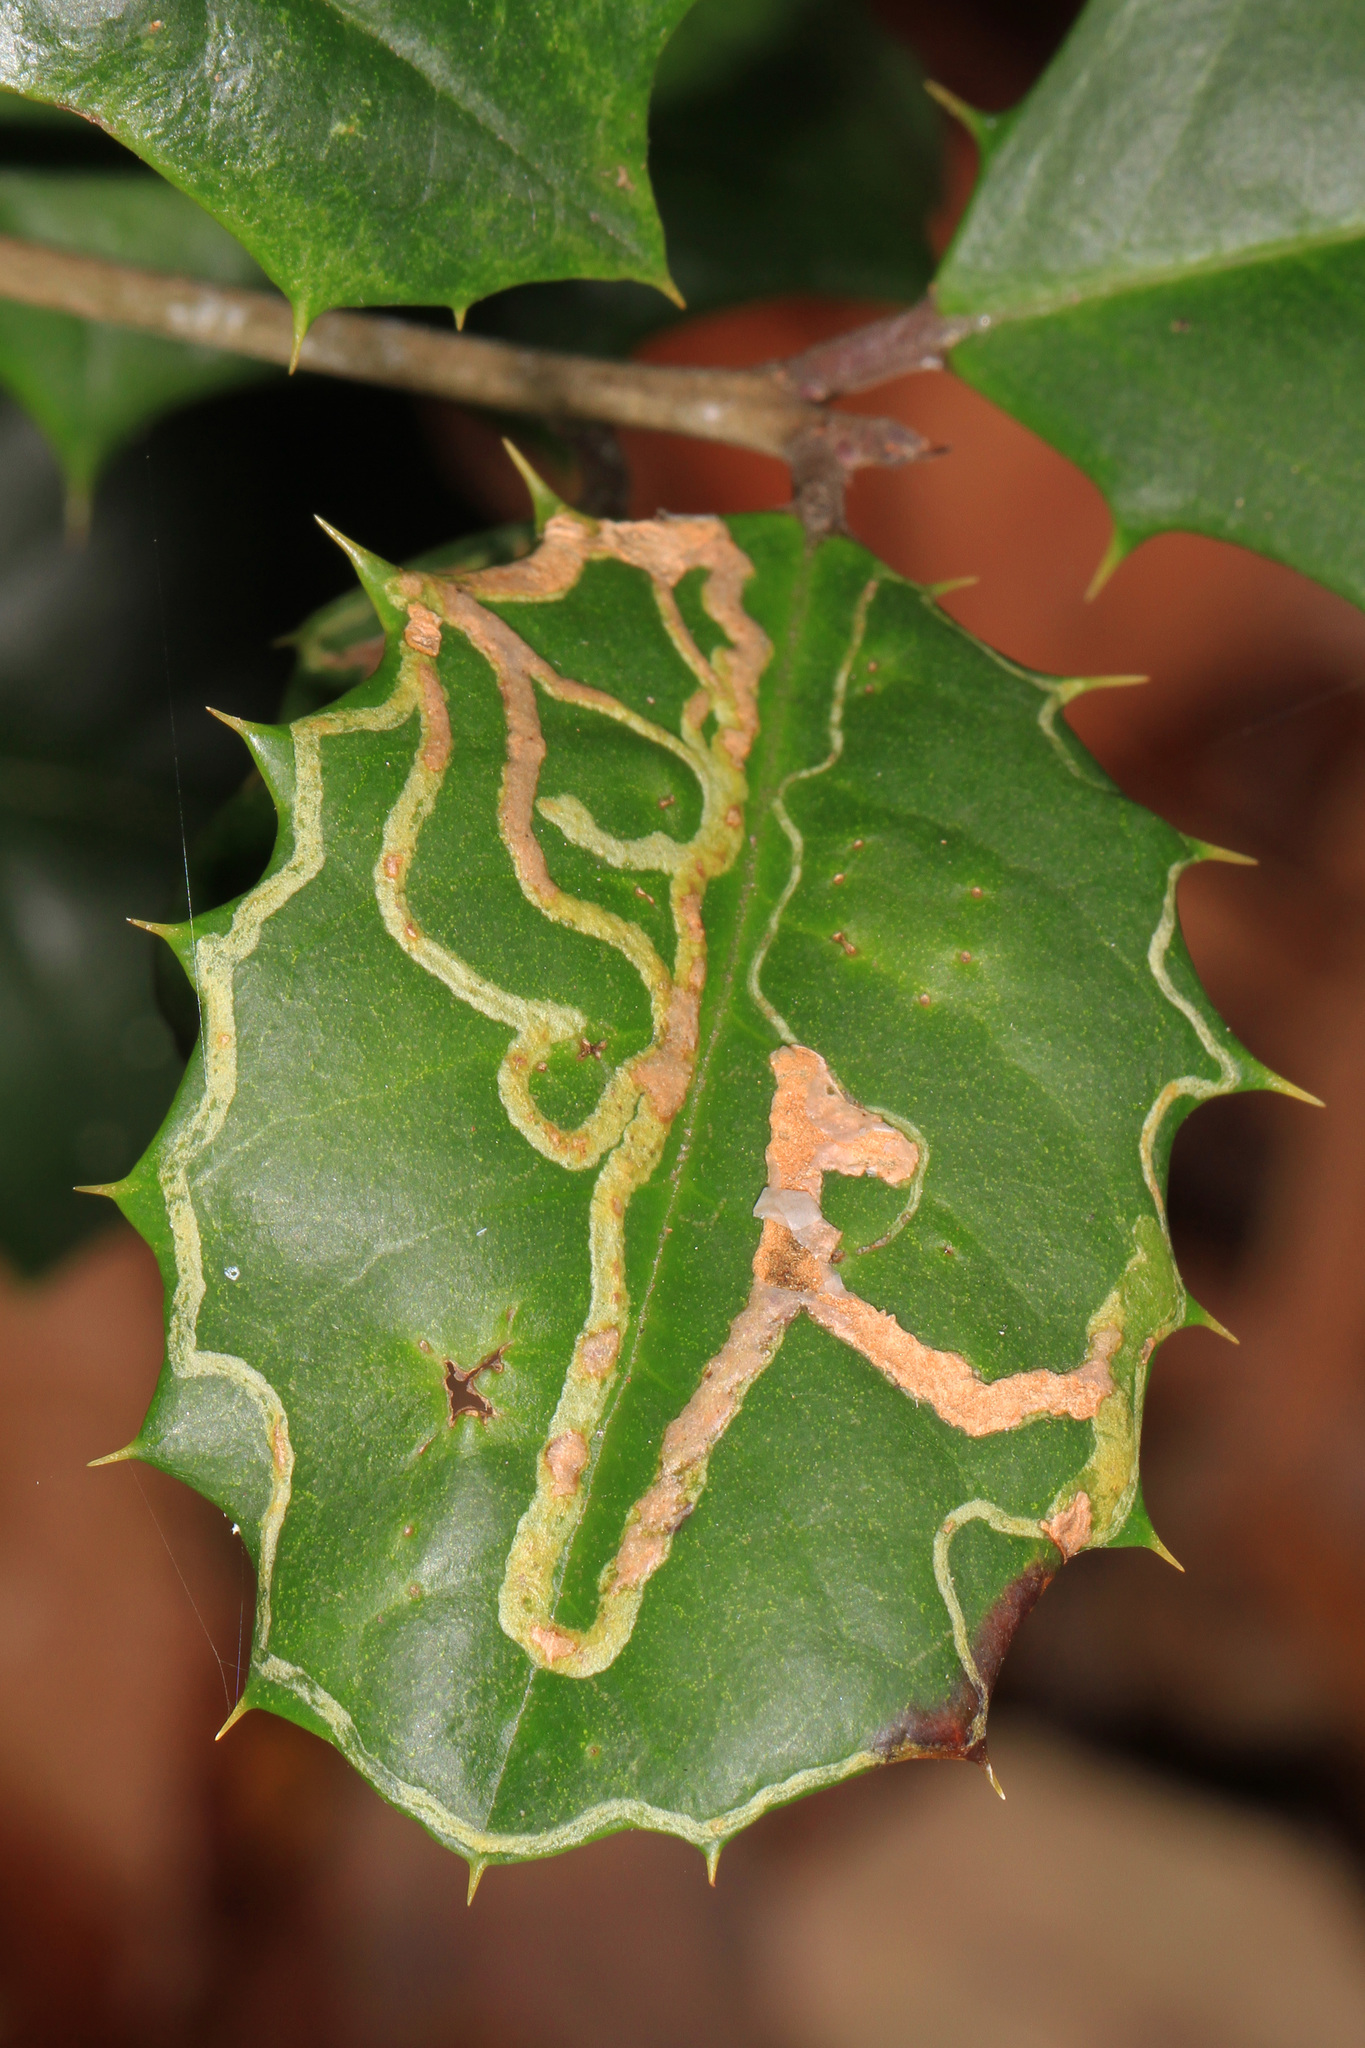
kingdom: Animalia
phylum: Arthropoda
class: Insecta
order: Diptera
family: Agromyzidae
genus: Phytomyza
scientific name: Phytomyza opacae
